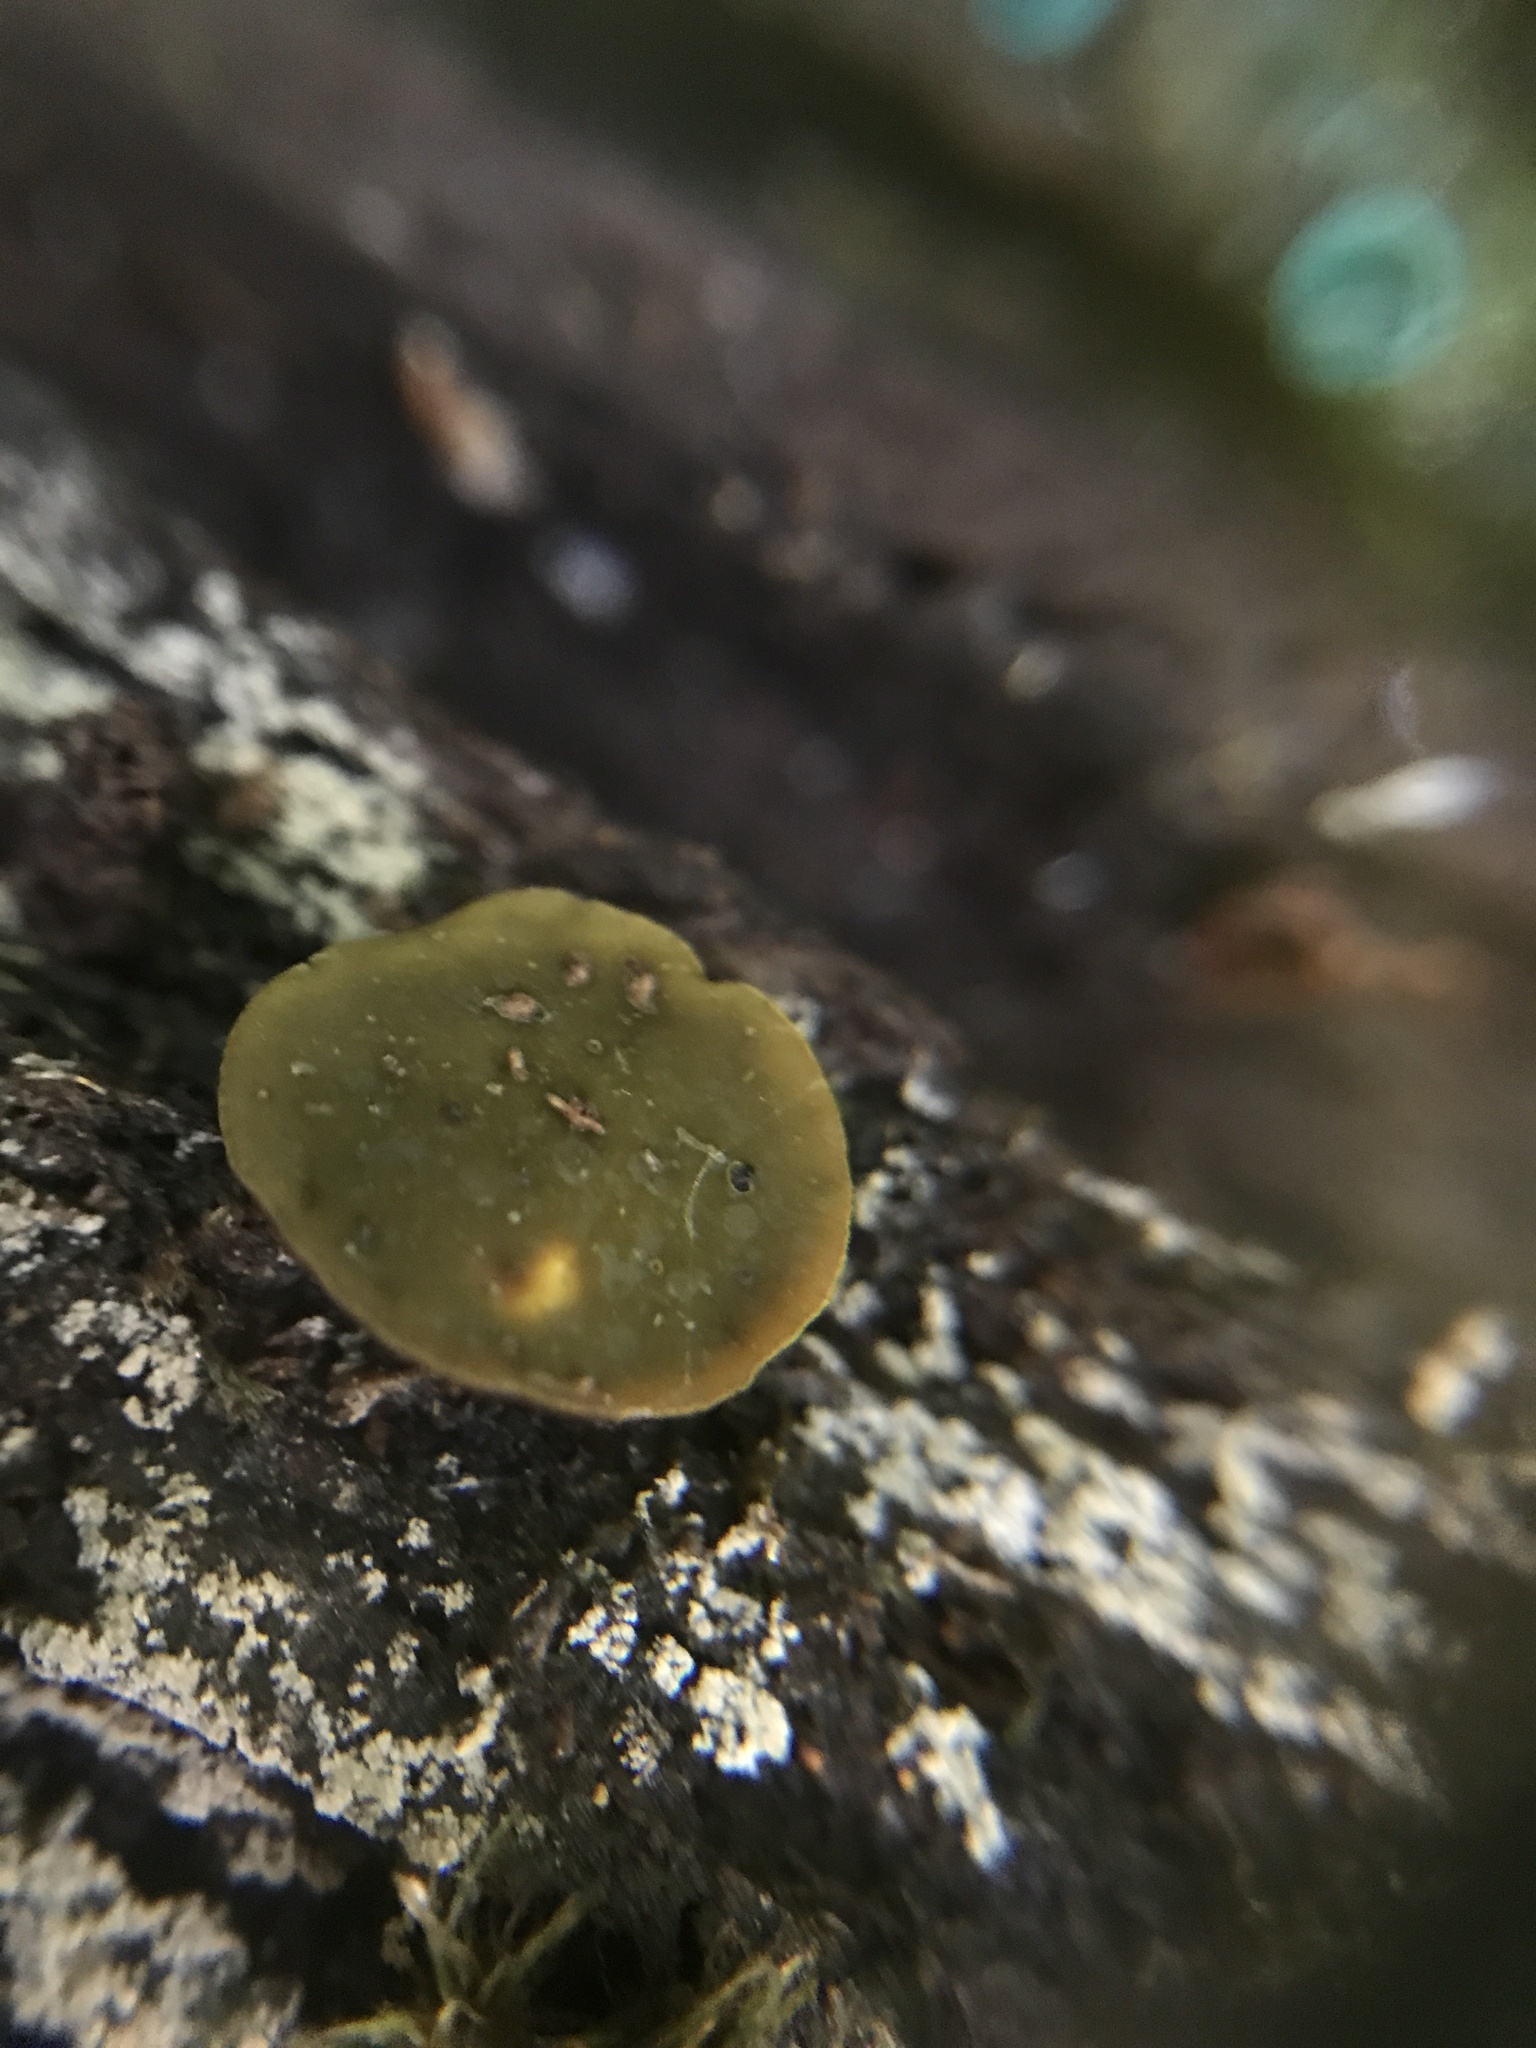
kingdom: Fungi
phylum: Ascomycota
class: Leotiomycetes
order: Helotiales
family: Cenangiaceae
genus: Chlorencoelia
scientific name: Chlorencoelia torta
